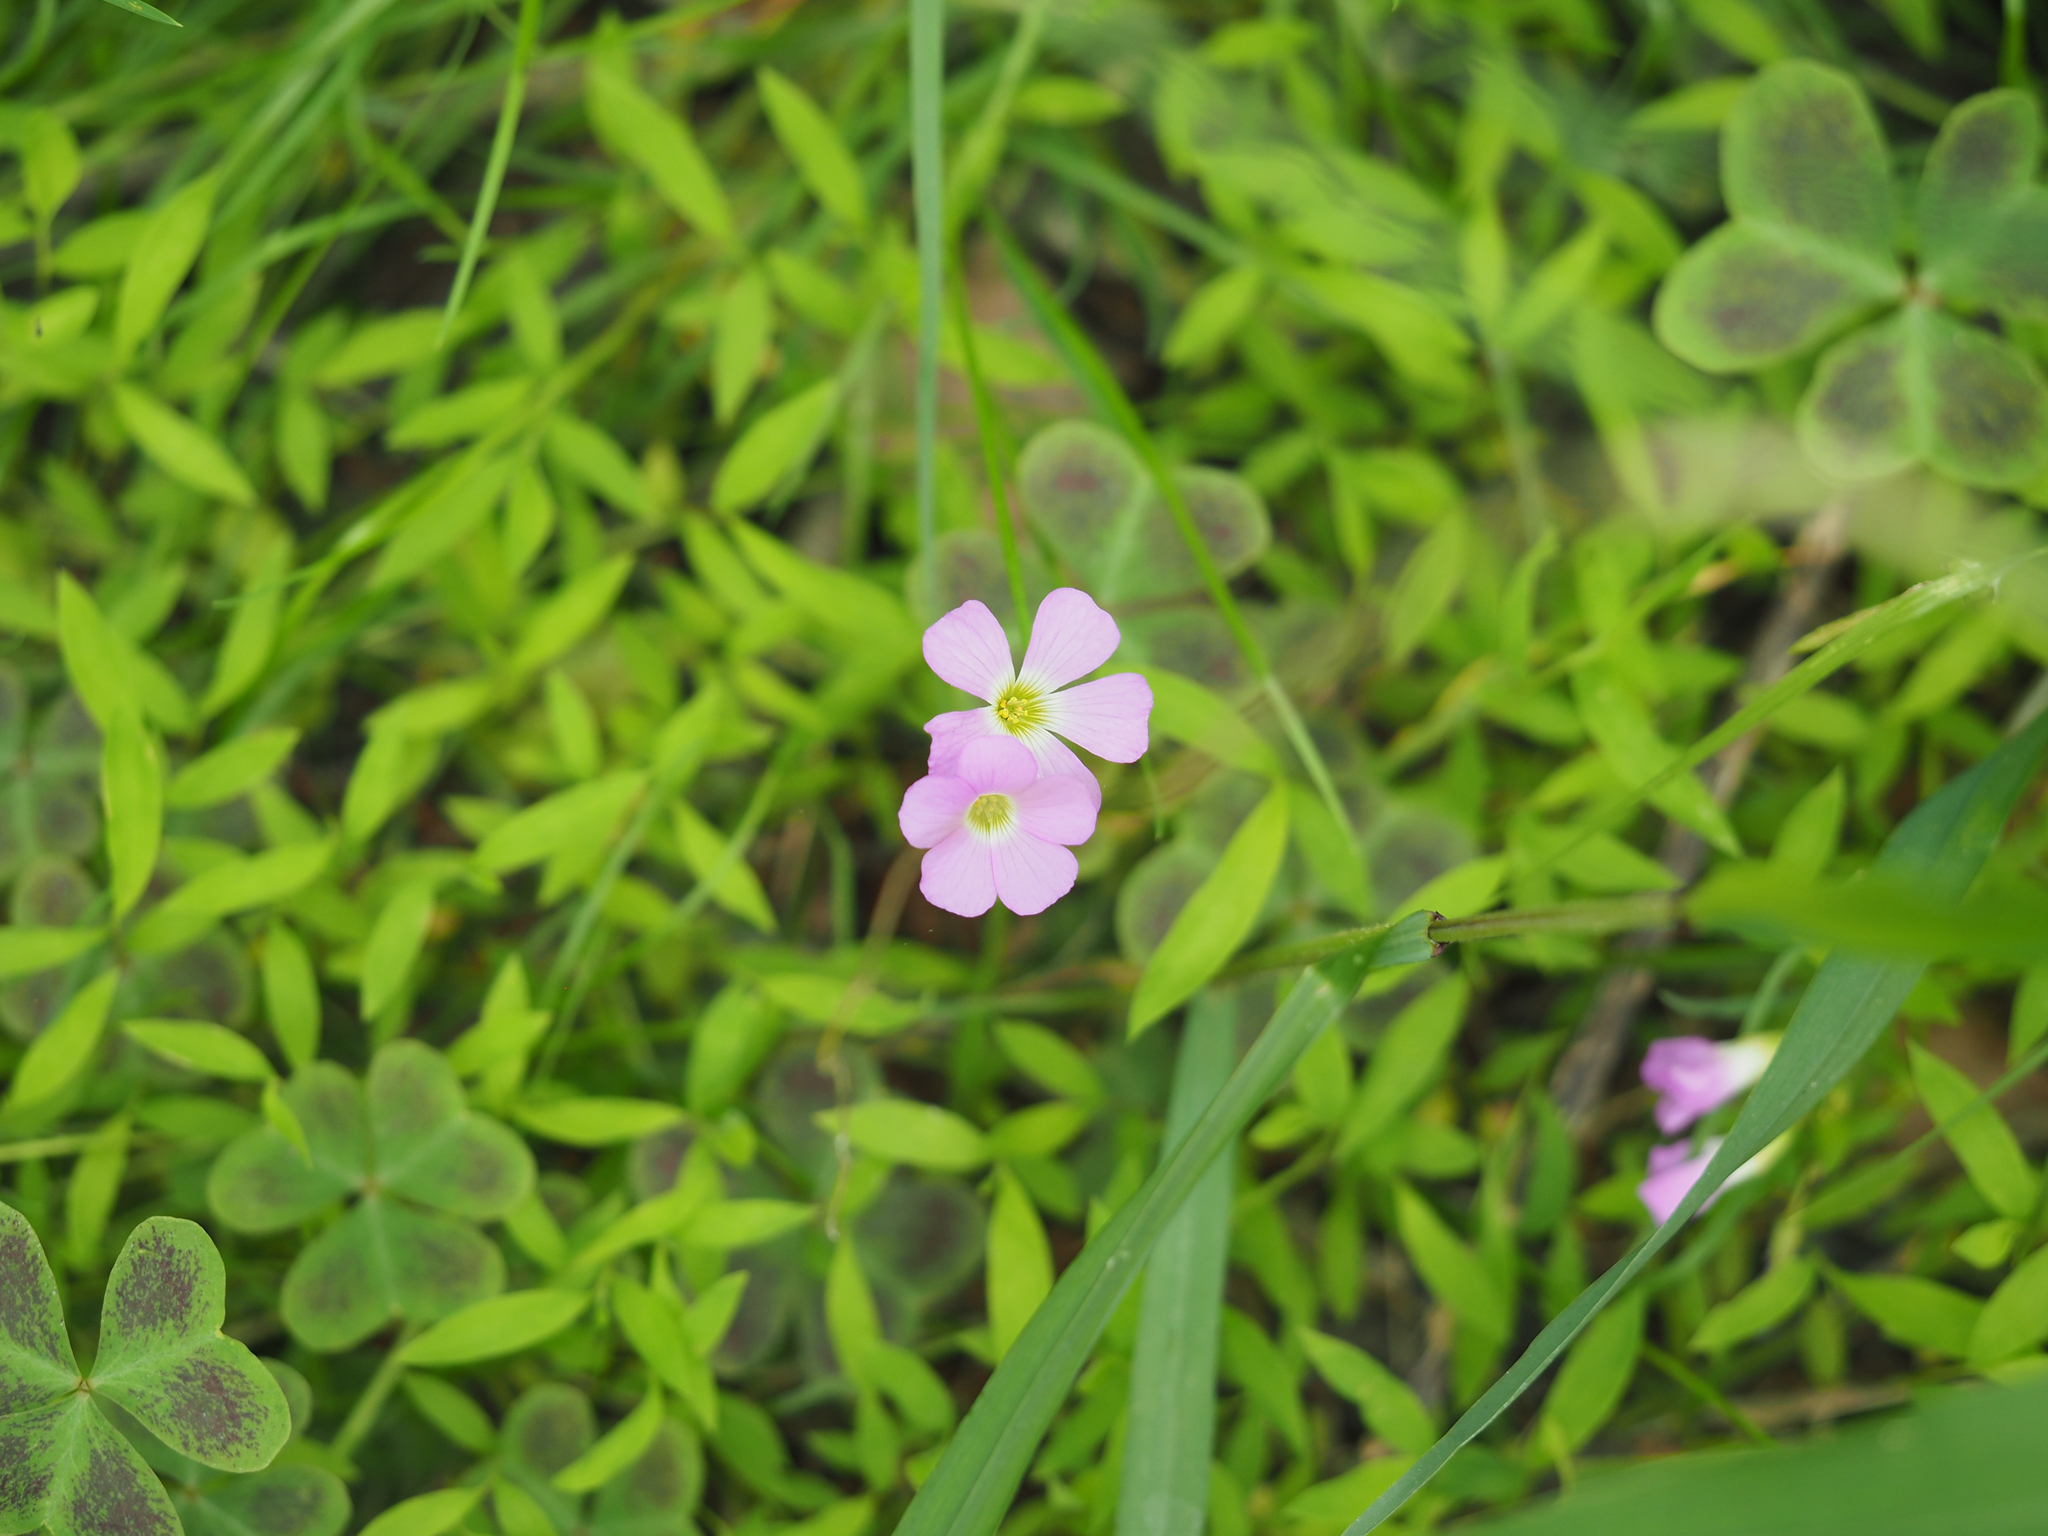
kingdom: Plantae
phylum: Tracheophyta
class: Magnoliopsida
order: Oxalidales
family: Oxalidaceae
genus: Oxalis
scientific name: Oxalis violacea
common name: Violet wood-sorrel
